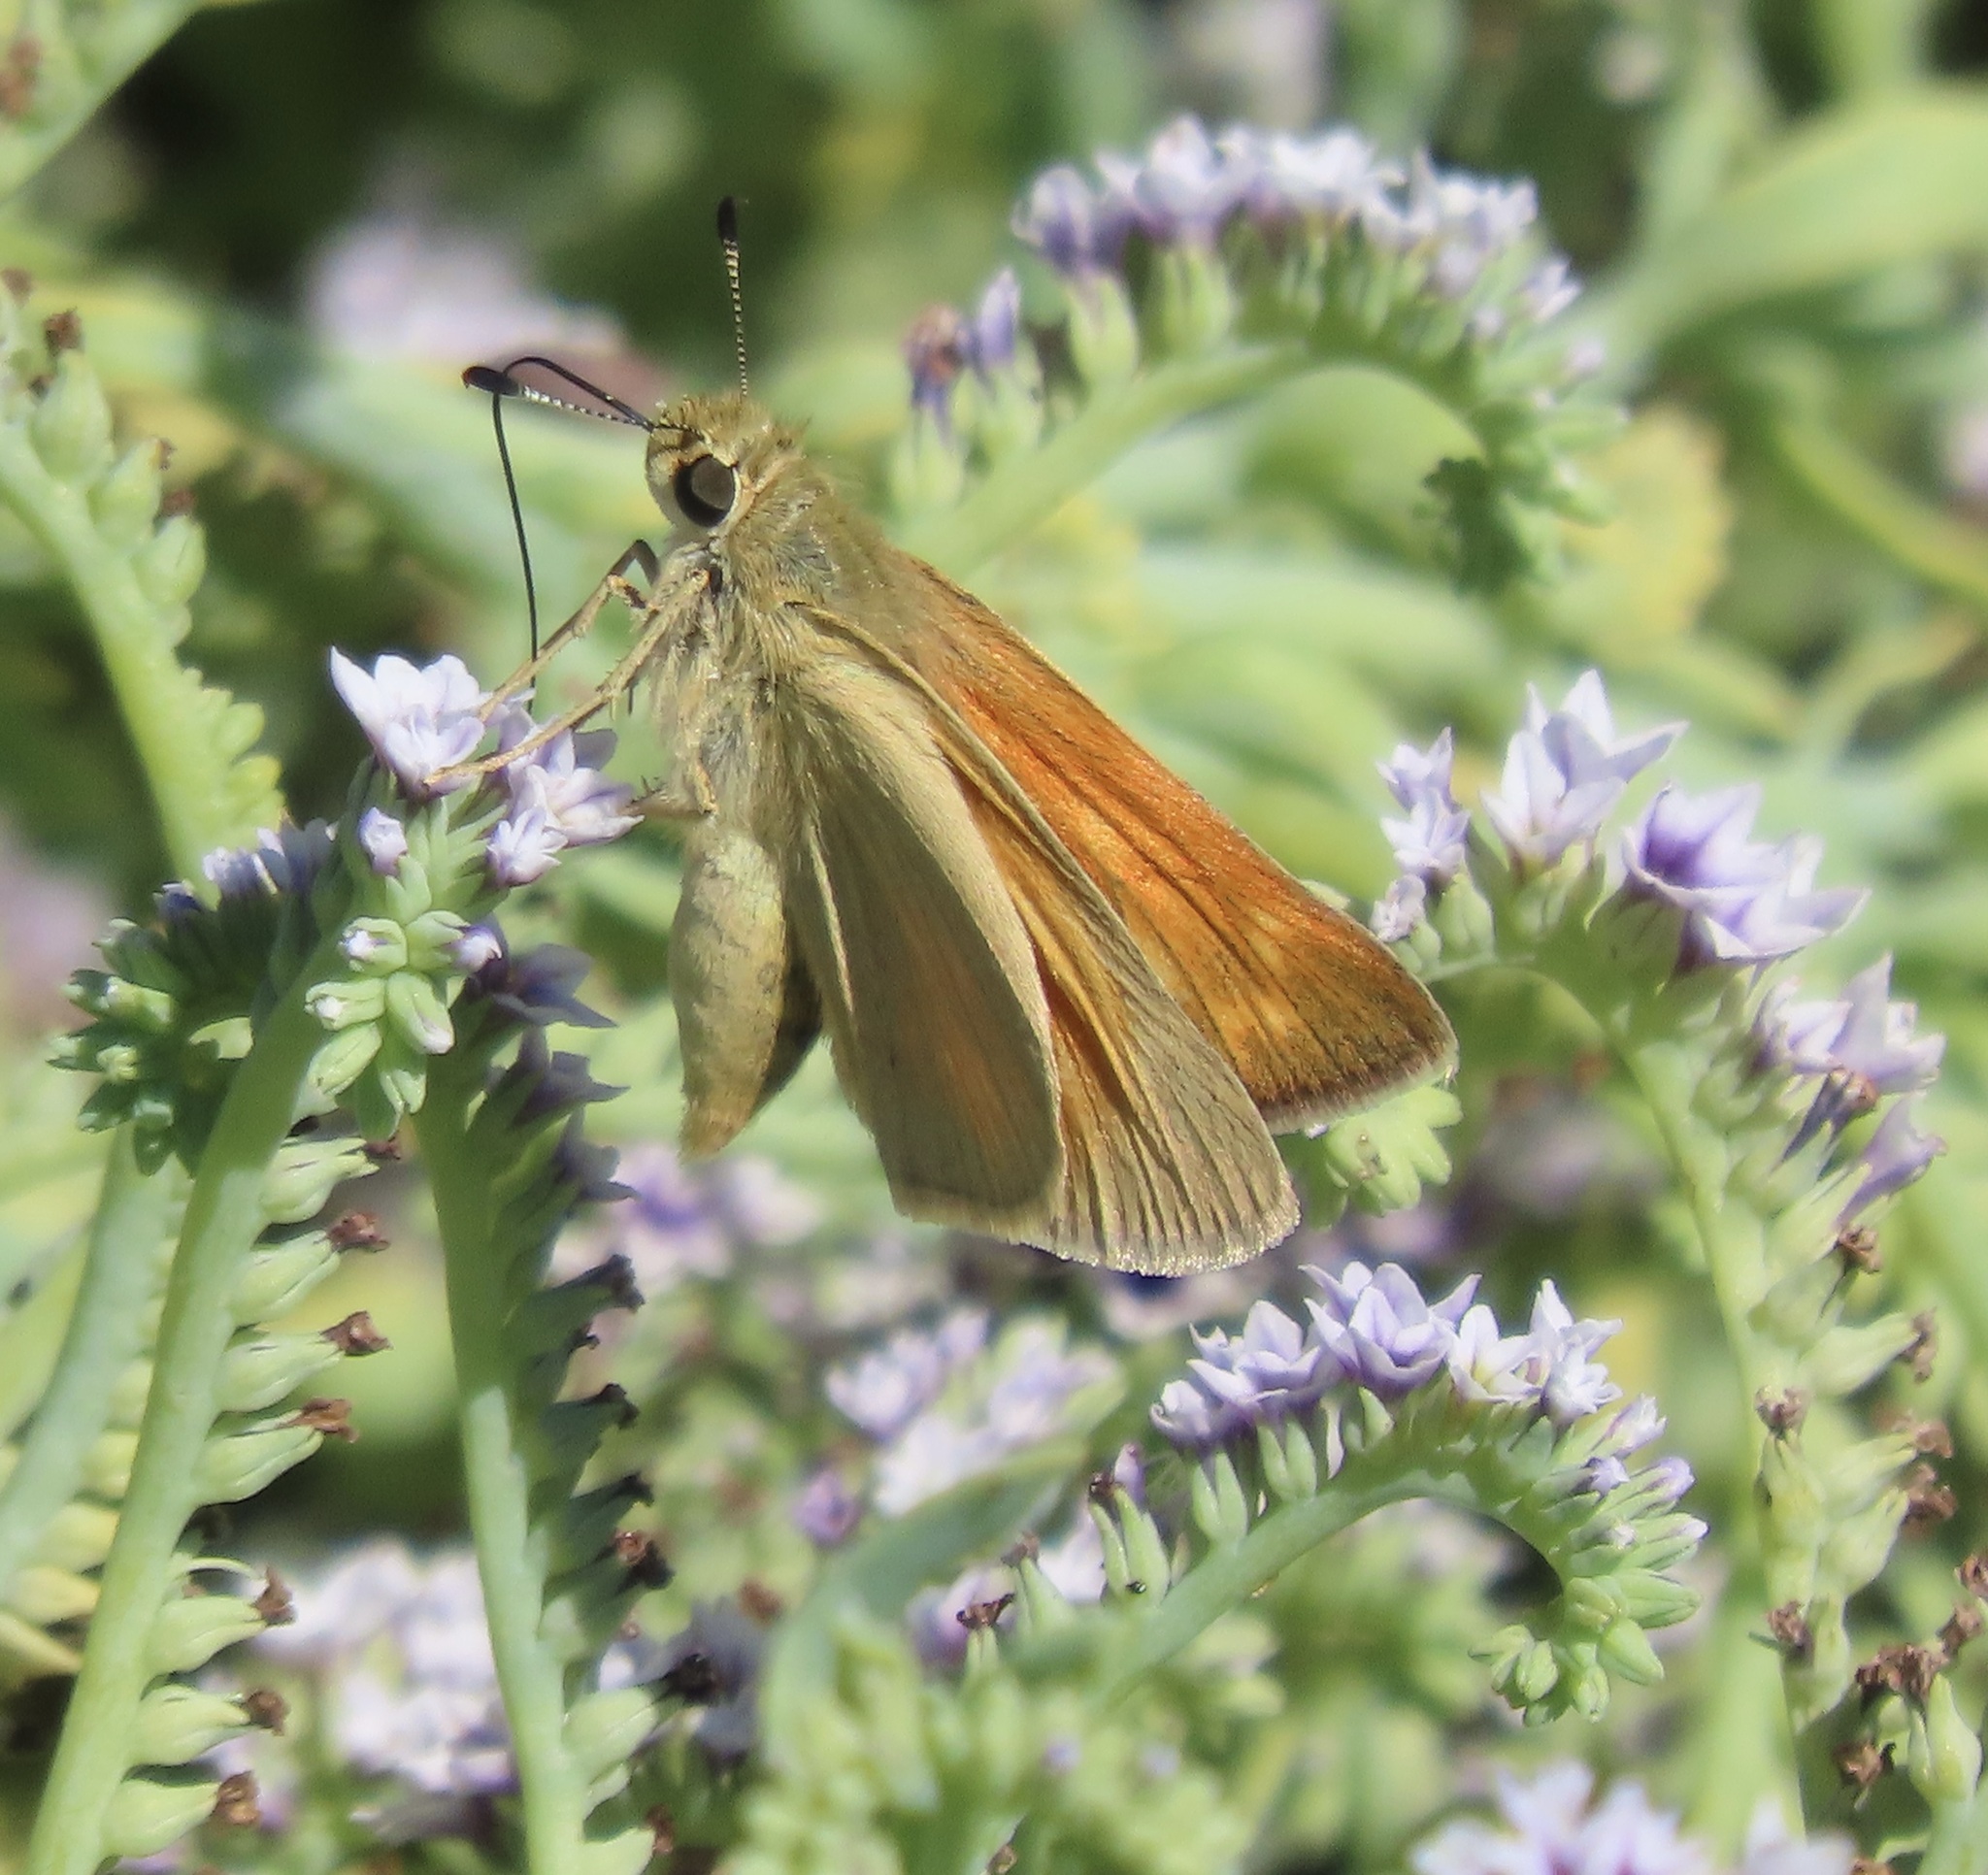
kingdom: Animalia
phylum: Arthropoda
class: Insecta
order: Lepidoptera
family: Hesperiidae
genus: Ochlodes
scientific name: Ochlodes sylvanoides
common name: Woodland skipper
